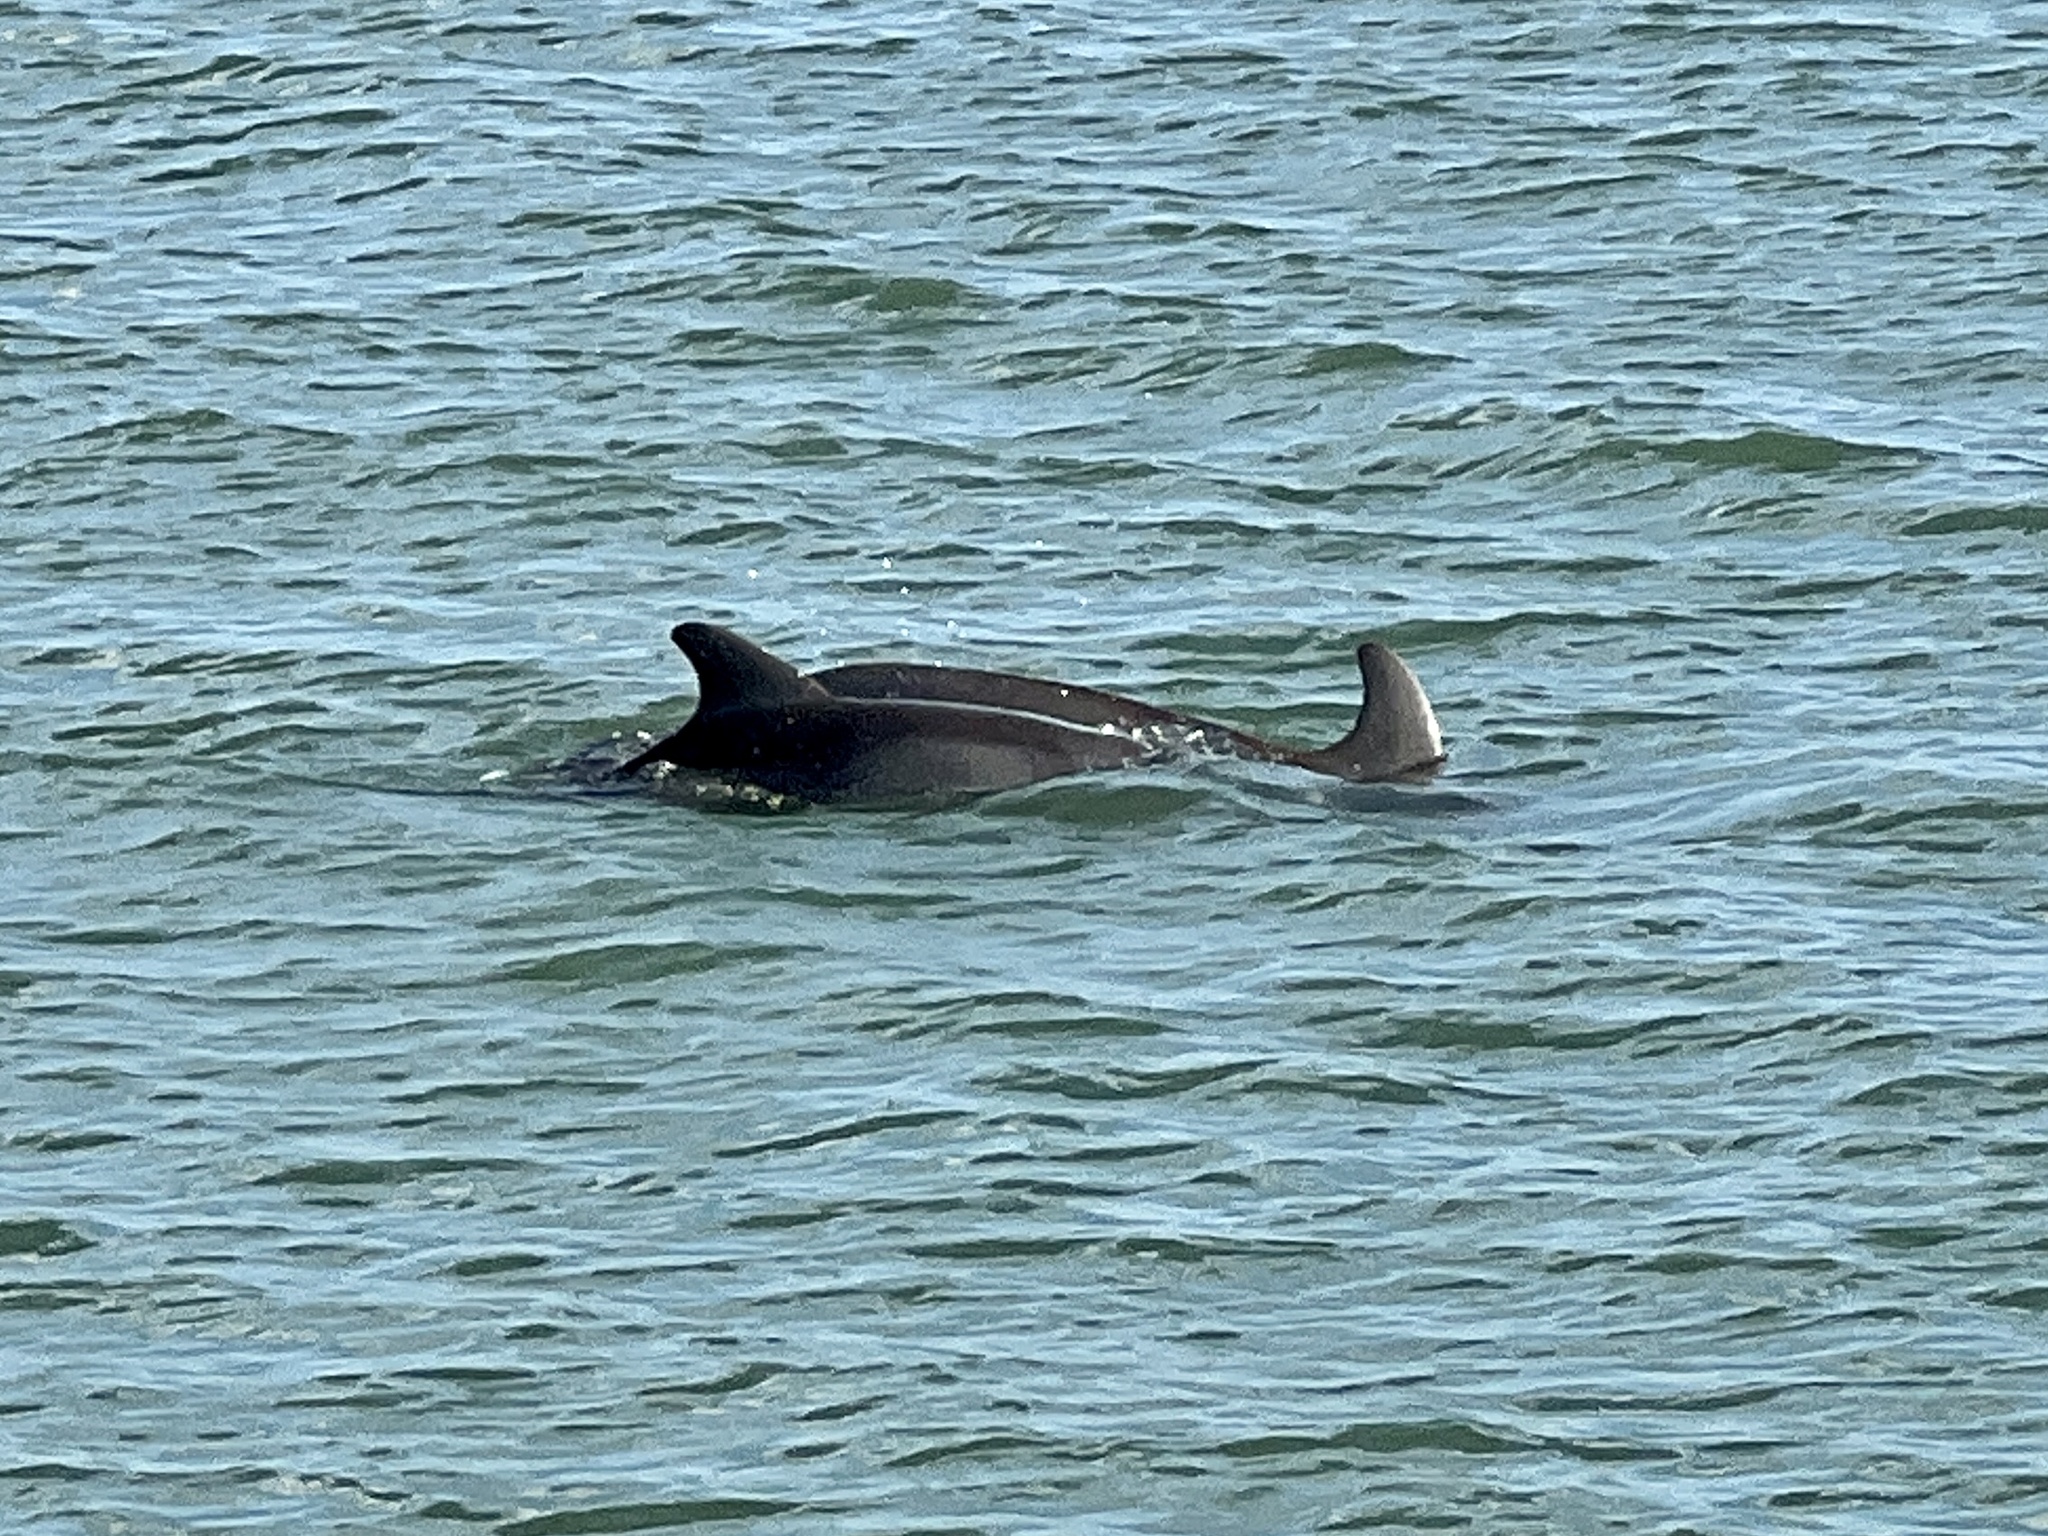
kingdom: Animalia
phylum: Chordata
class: Mammalia
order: Cetacea
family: Delphinidae
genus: Tursiops
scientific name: Tursiops truncatus
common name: Bottlenose dolphin
